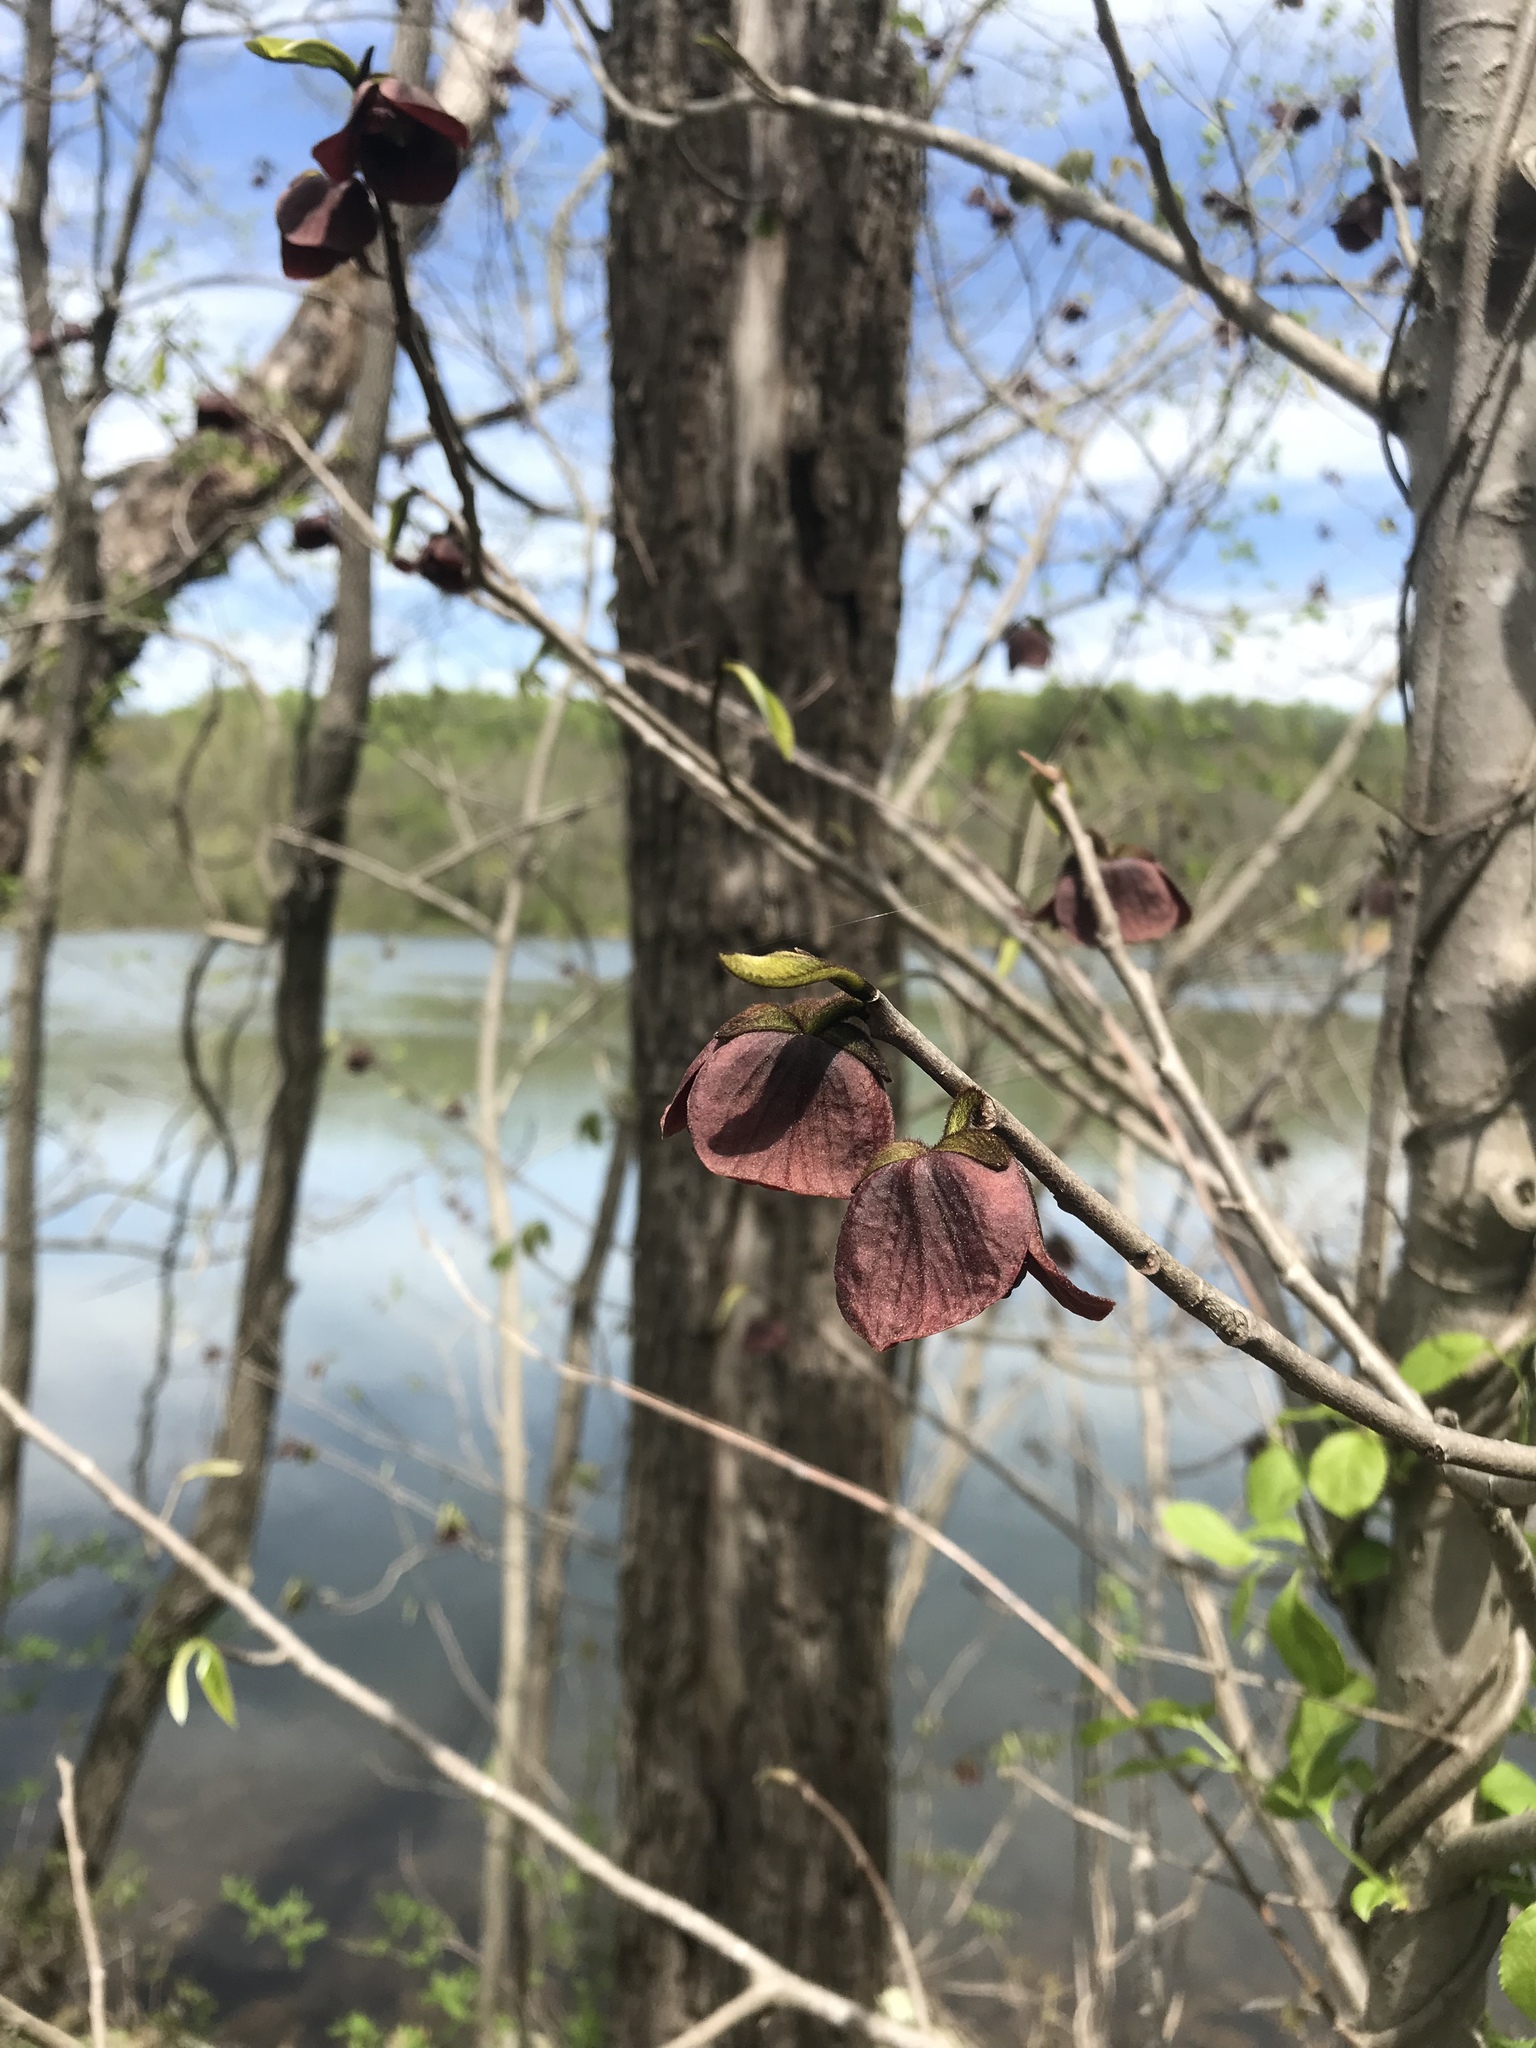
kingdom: Plantae
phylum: Tracheophyta
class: Magnoliopsida
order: Magnoliales
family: Annonaceae
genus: Asimina
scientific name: Asimina triloba
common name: Dog-banana
